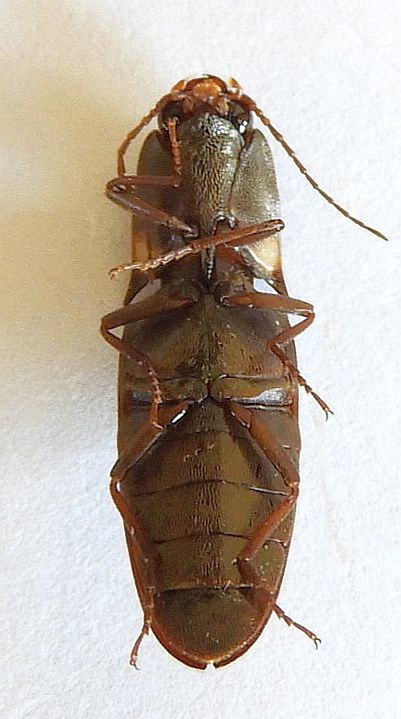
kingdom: Animalia
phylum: Arthropoda
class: Insecta
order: Coleoptera
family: Elateridae
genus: Vesperelater
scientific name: Vesperelater
